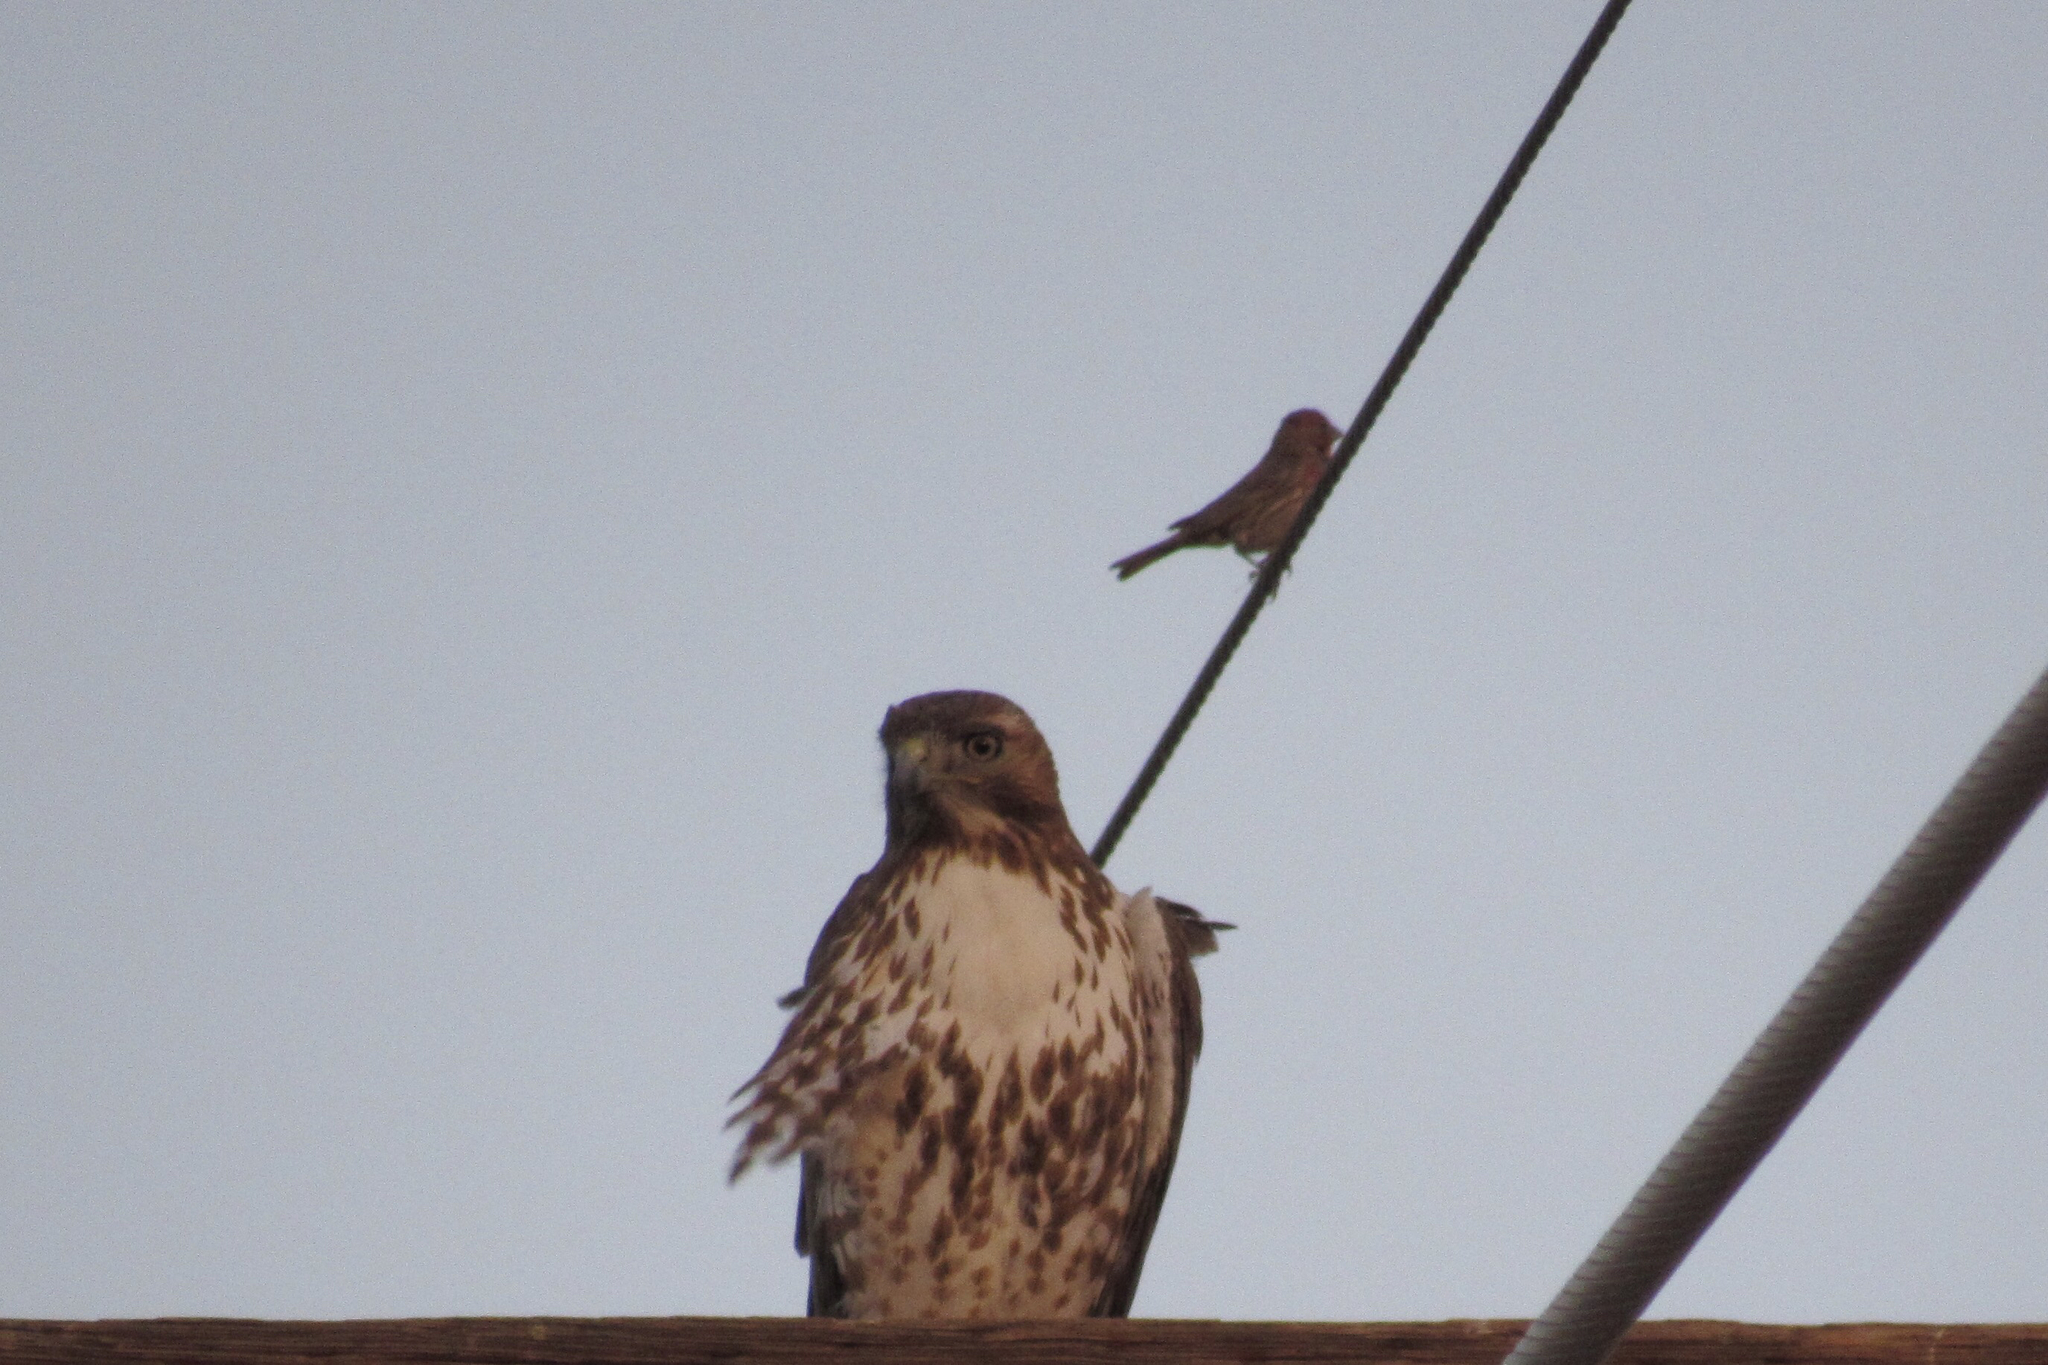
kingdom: Animalia
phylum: Chordata
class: Aves
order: Accipitriformes
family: Accipitridae
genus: Buteo
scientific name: Buteo jamaicensis
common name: Red-tailed hawk
